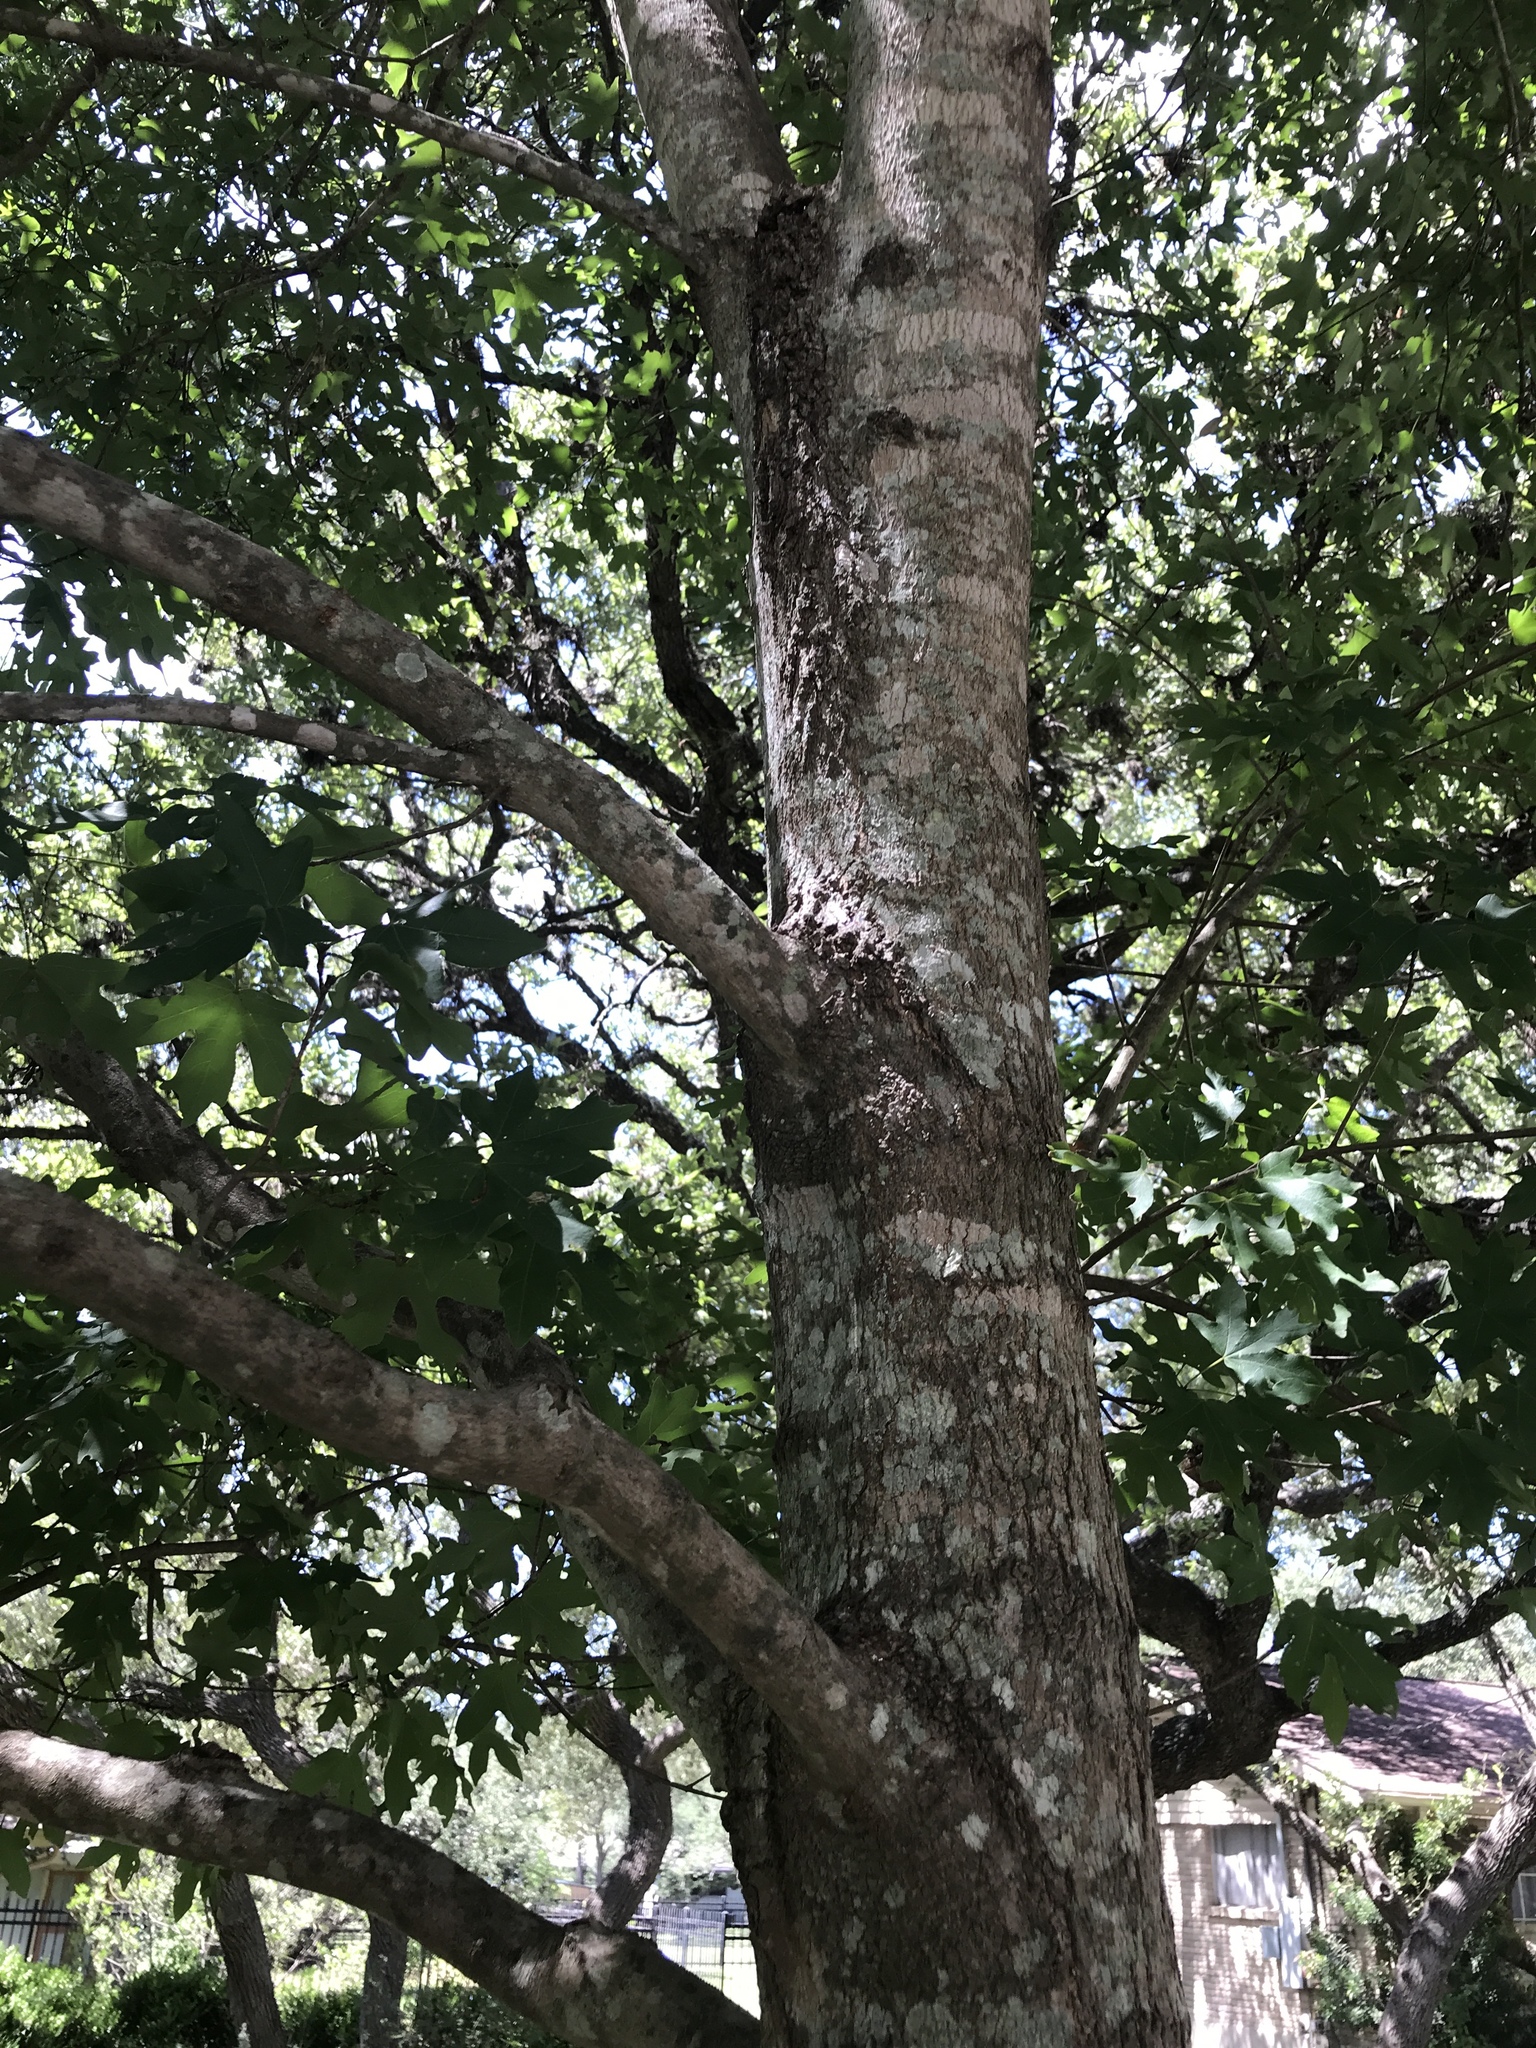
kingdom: Plantae
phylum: Tracheophyta
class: Magnoliopsida
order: Sapindales
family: Sapindaceae
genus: Acer
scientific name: Acer grandidentatum
